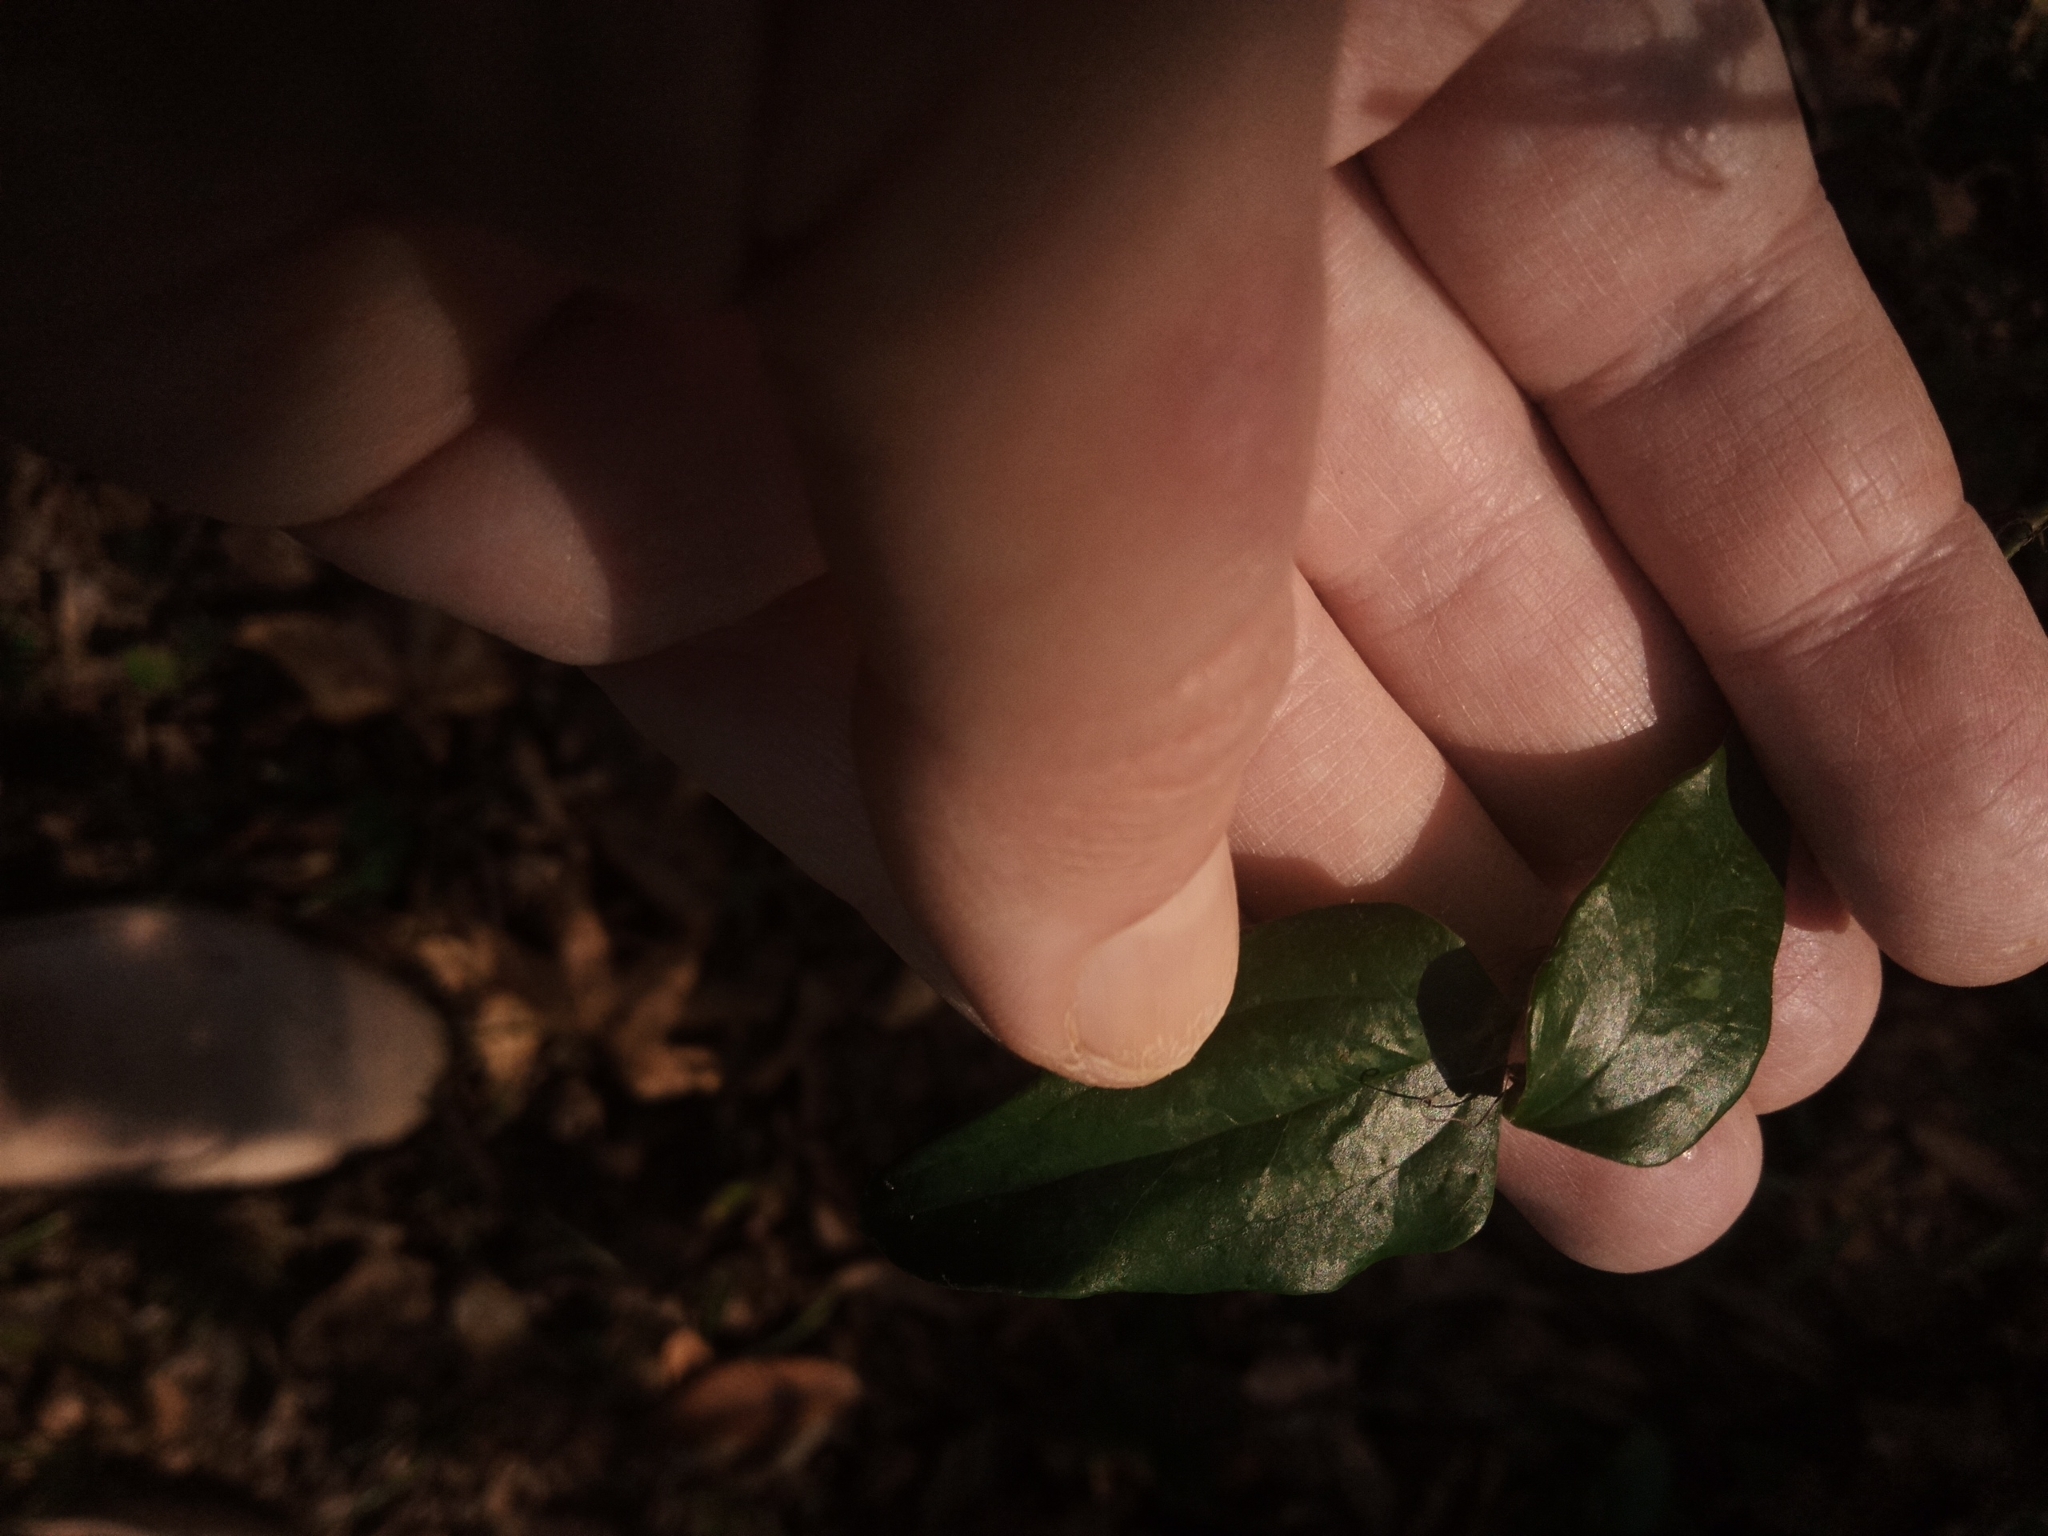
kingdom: Plantae
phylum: Tracheophyta
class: Liliopsida
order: Liliales
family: Smilacaceae
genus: Smilax
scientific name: Smilax glauca
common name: Cat greenbrier
